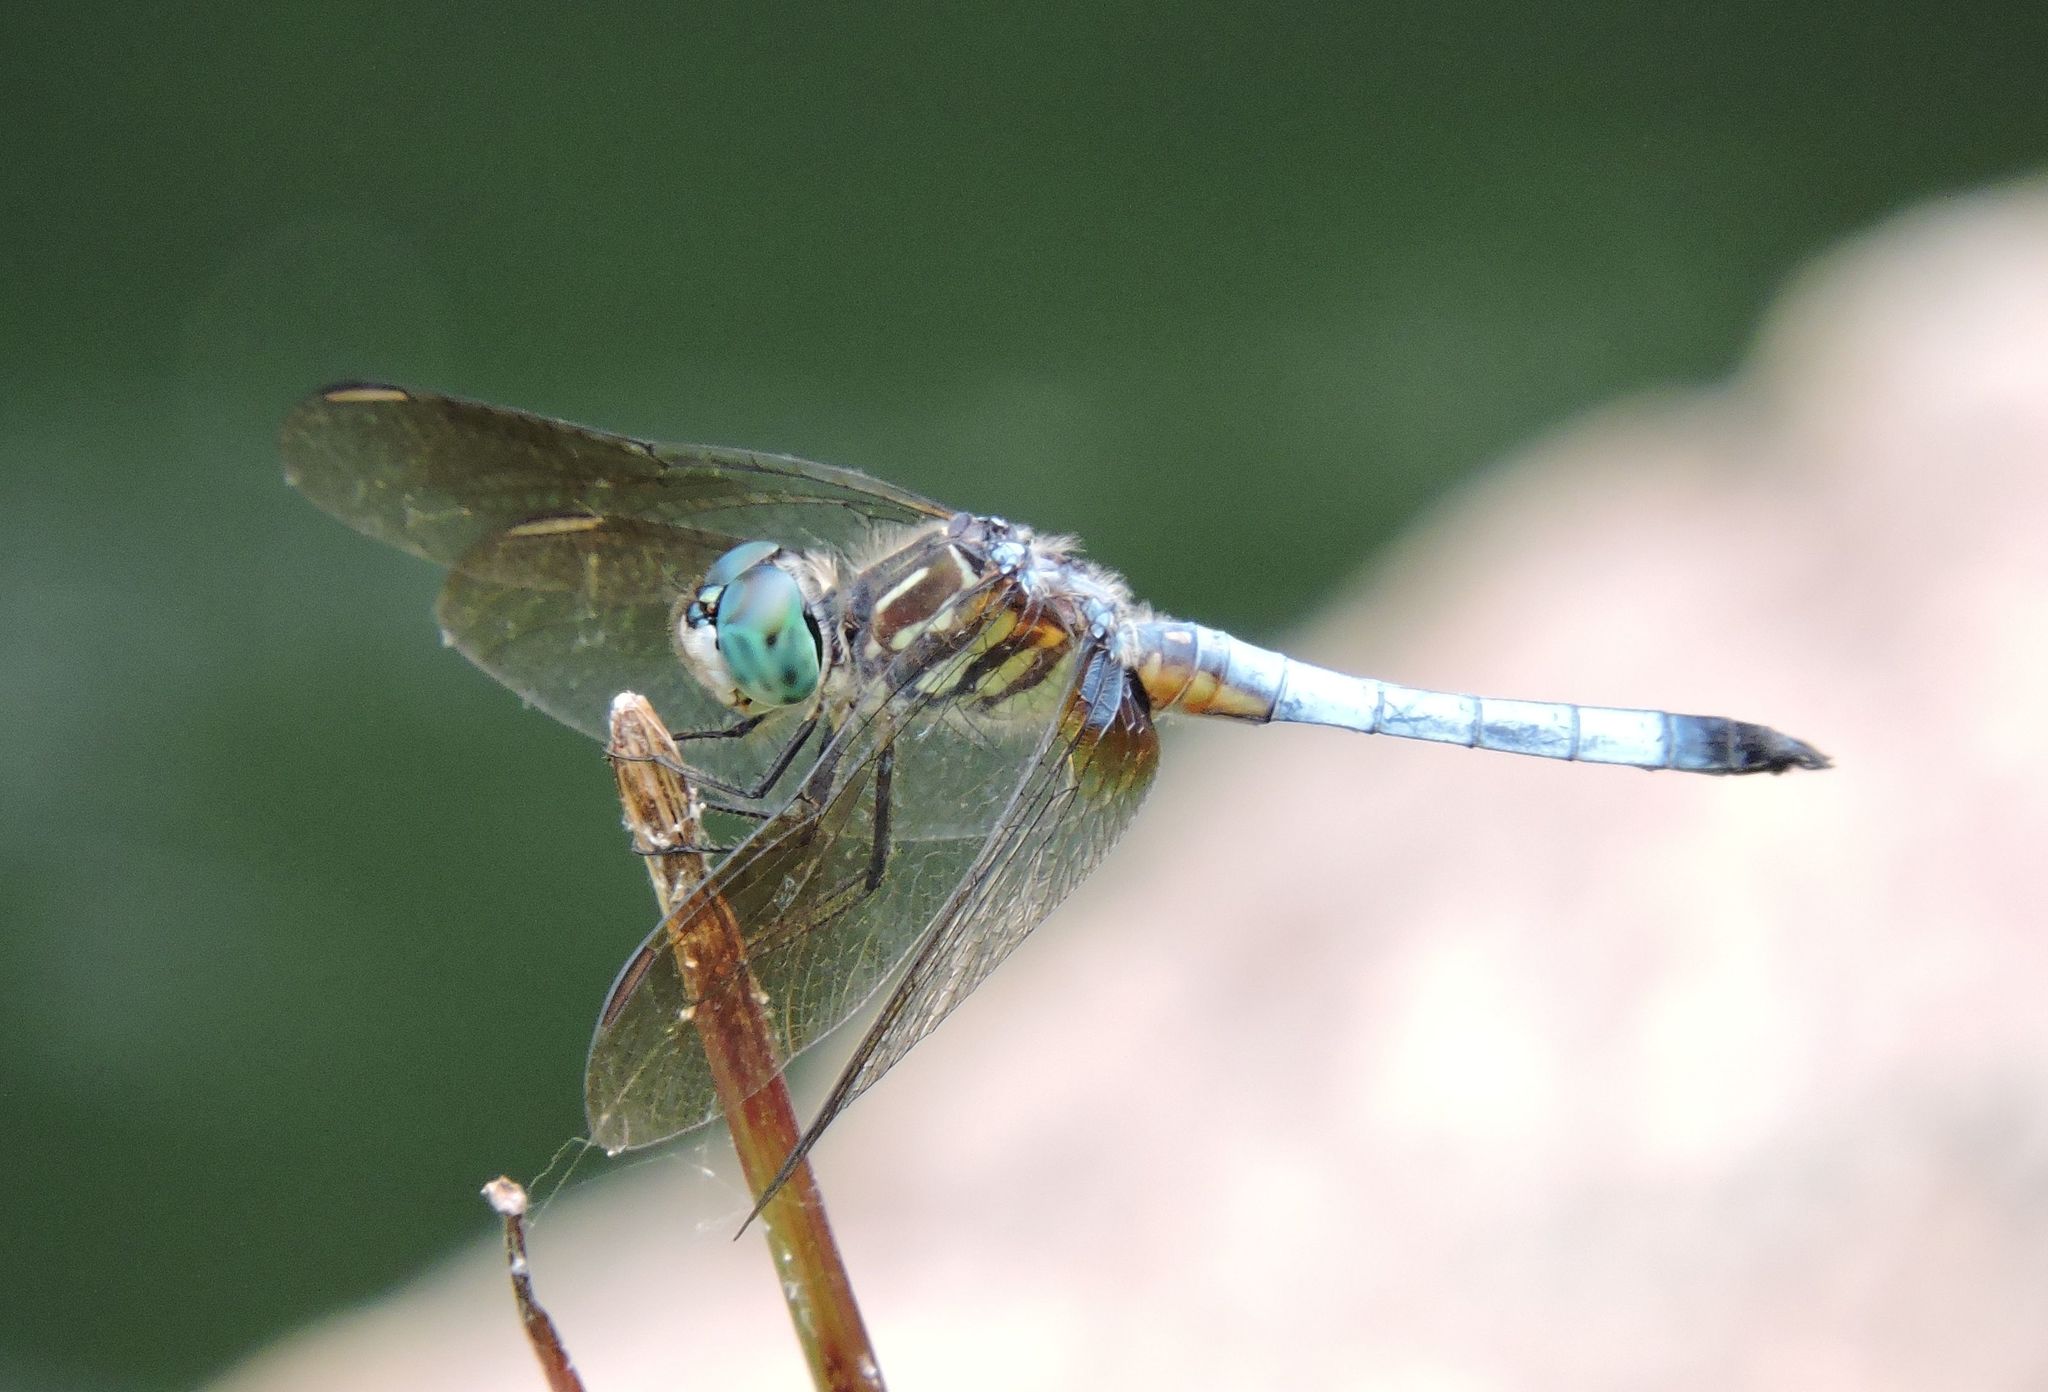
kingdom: Animalia
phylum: Arthropoda
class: Insecta
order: Odonata
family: Libellulidae
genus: Pachydiplax
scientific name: Pachydiplax longipennis
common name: Blue dasher
